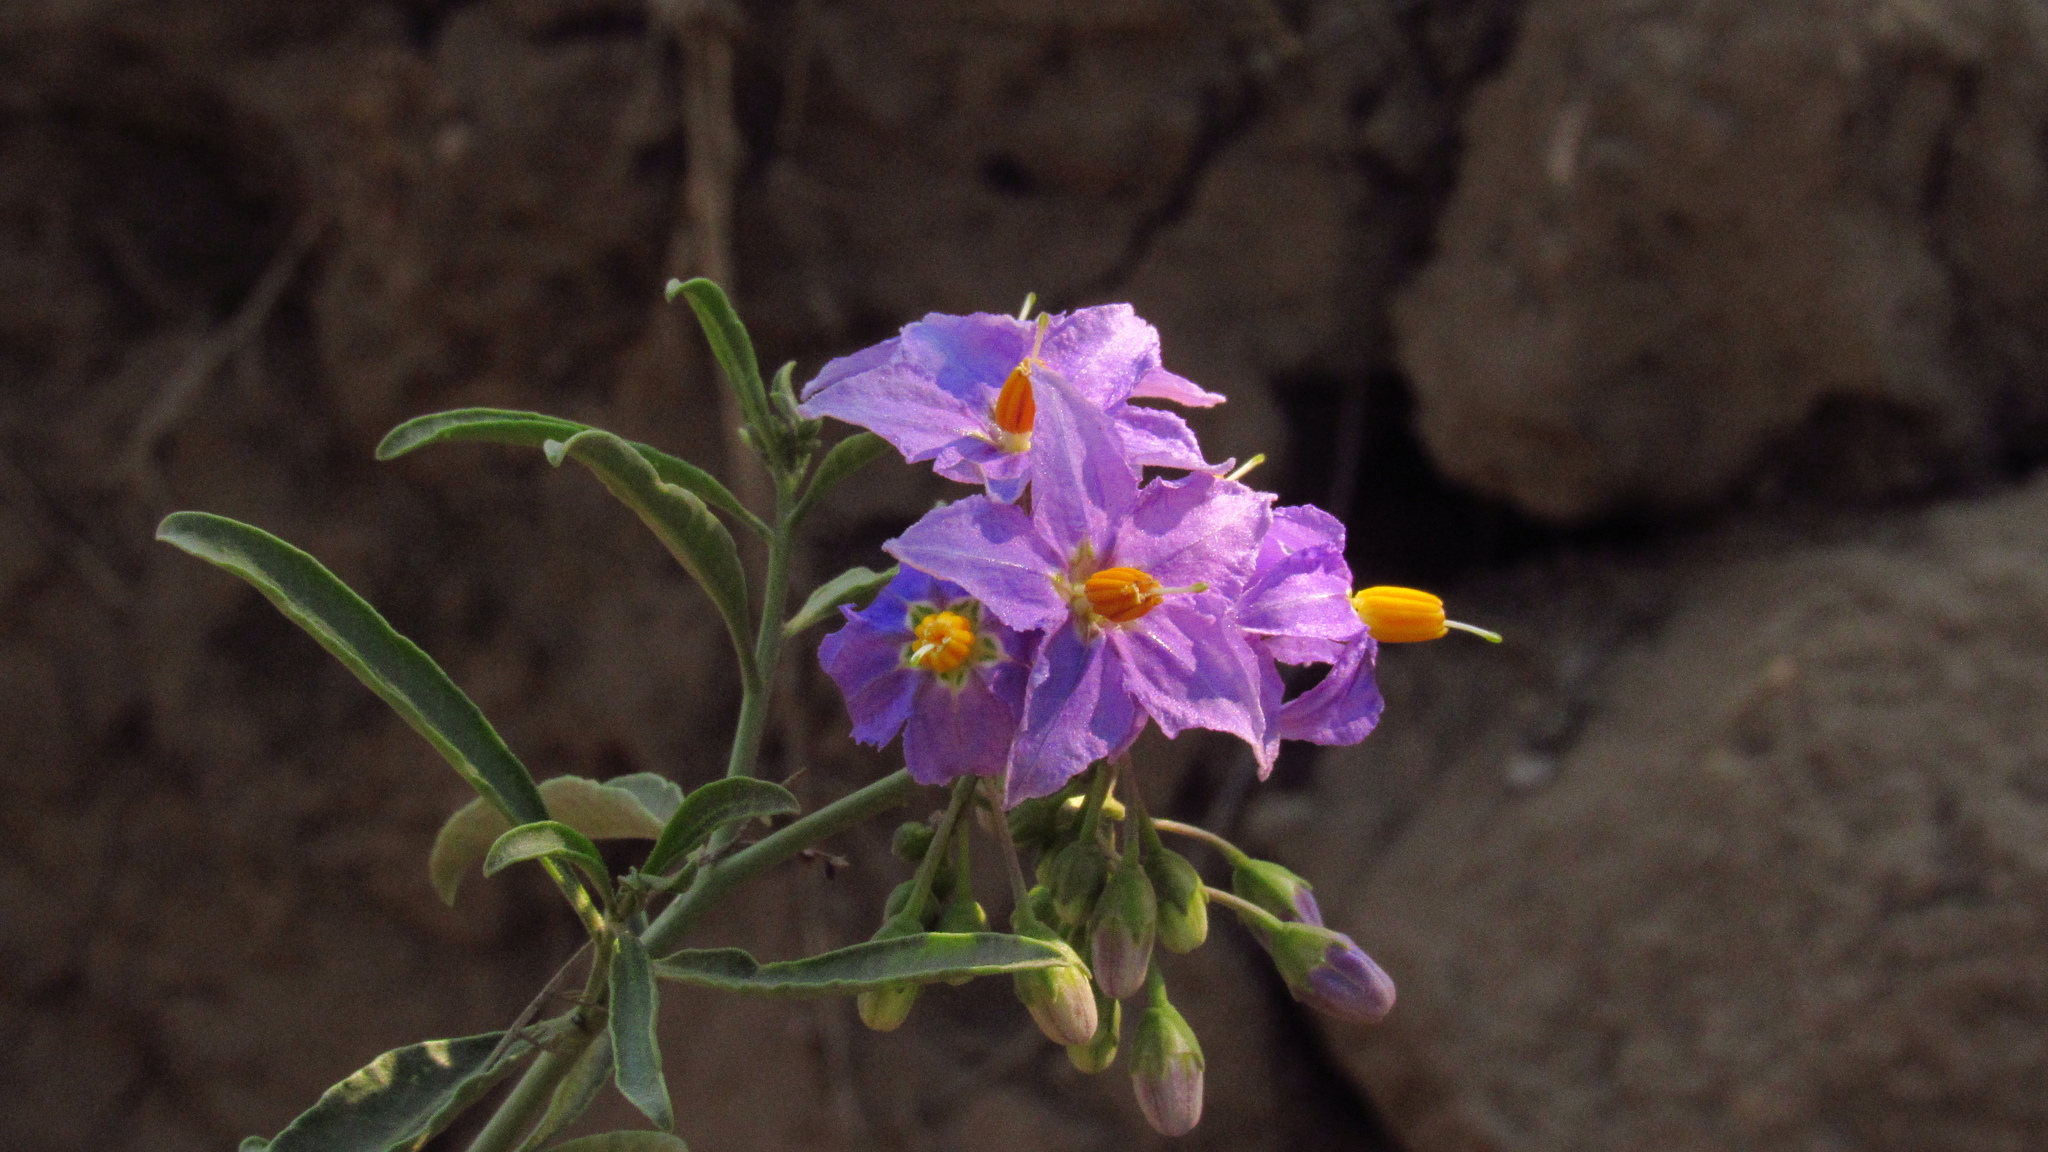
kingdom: Plantae
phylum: Tracheophyta
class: Magnoliopsida
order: Solanales
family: Solanaceae
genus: Solanum
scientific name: Solanum crispum
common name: Chilean nightshade
